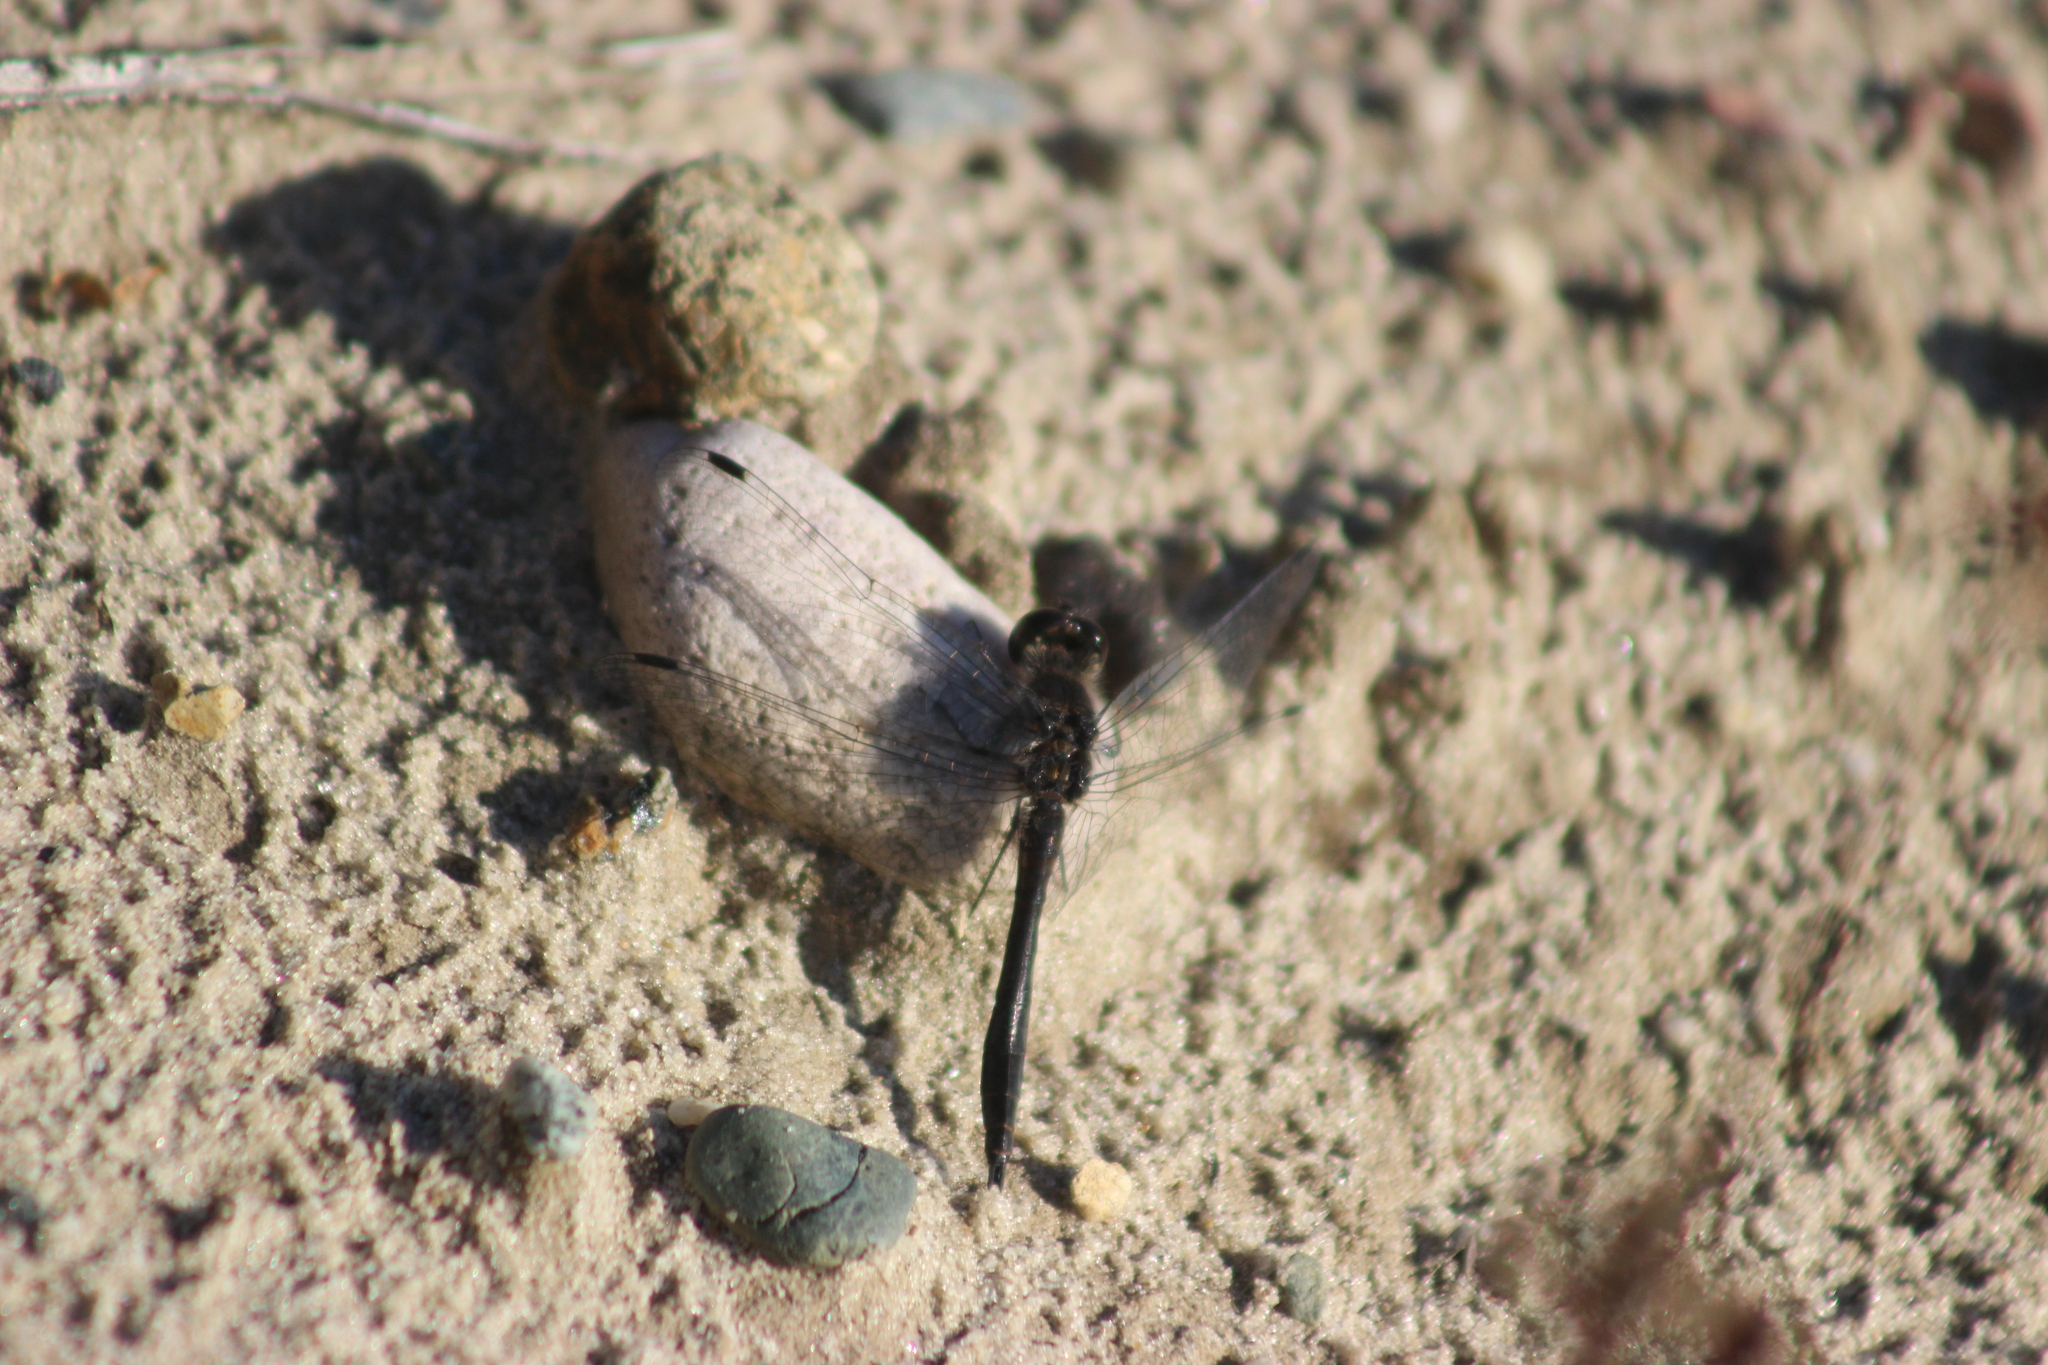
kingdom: Animalia
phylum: Arthropoda
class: Insecta
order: Odonata
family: Libellulidae
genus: Sympetrum
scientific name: Sympetrum danae
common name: Black darter
